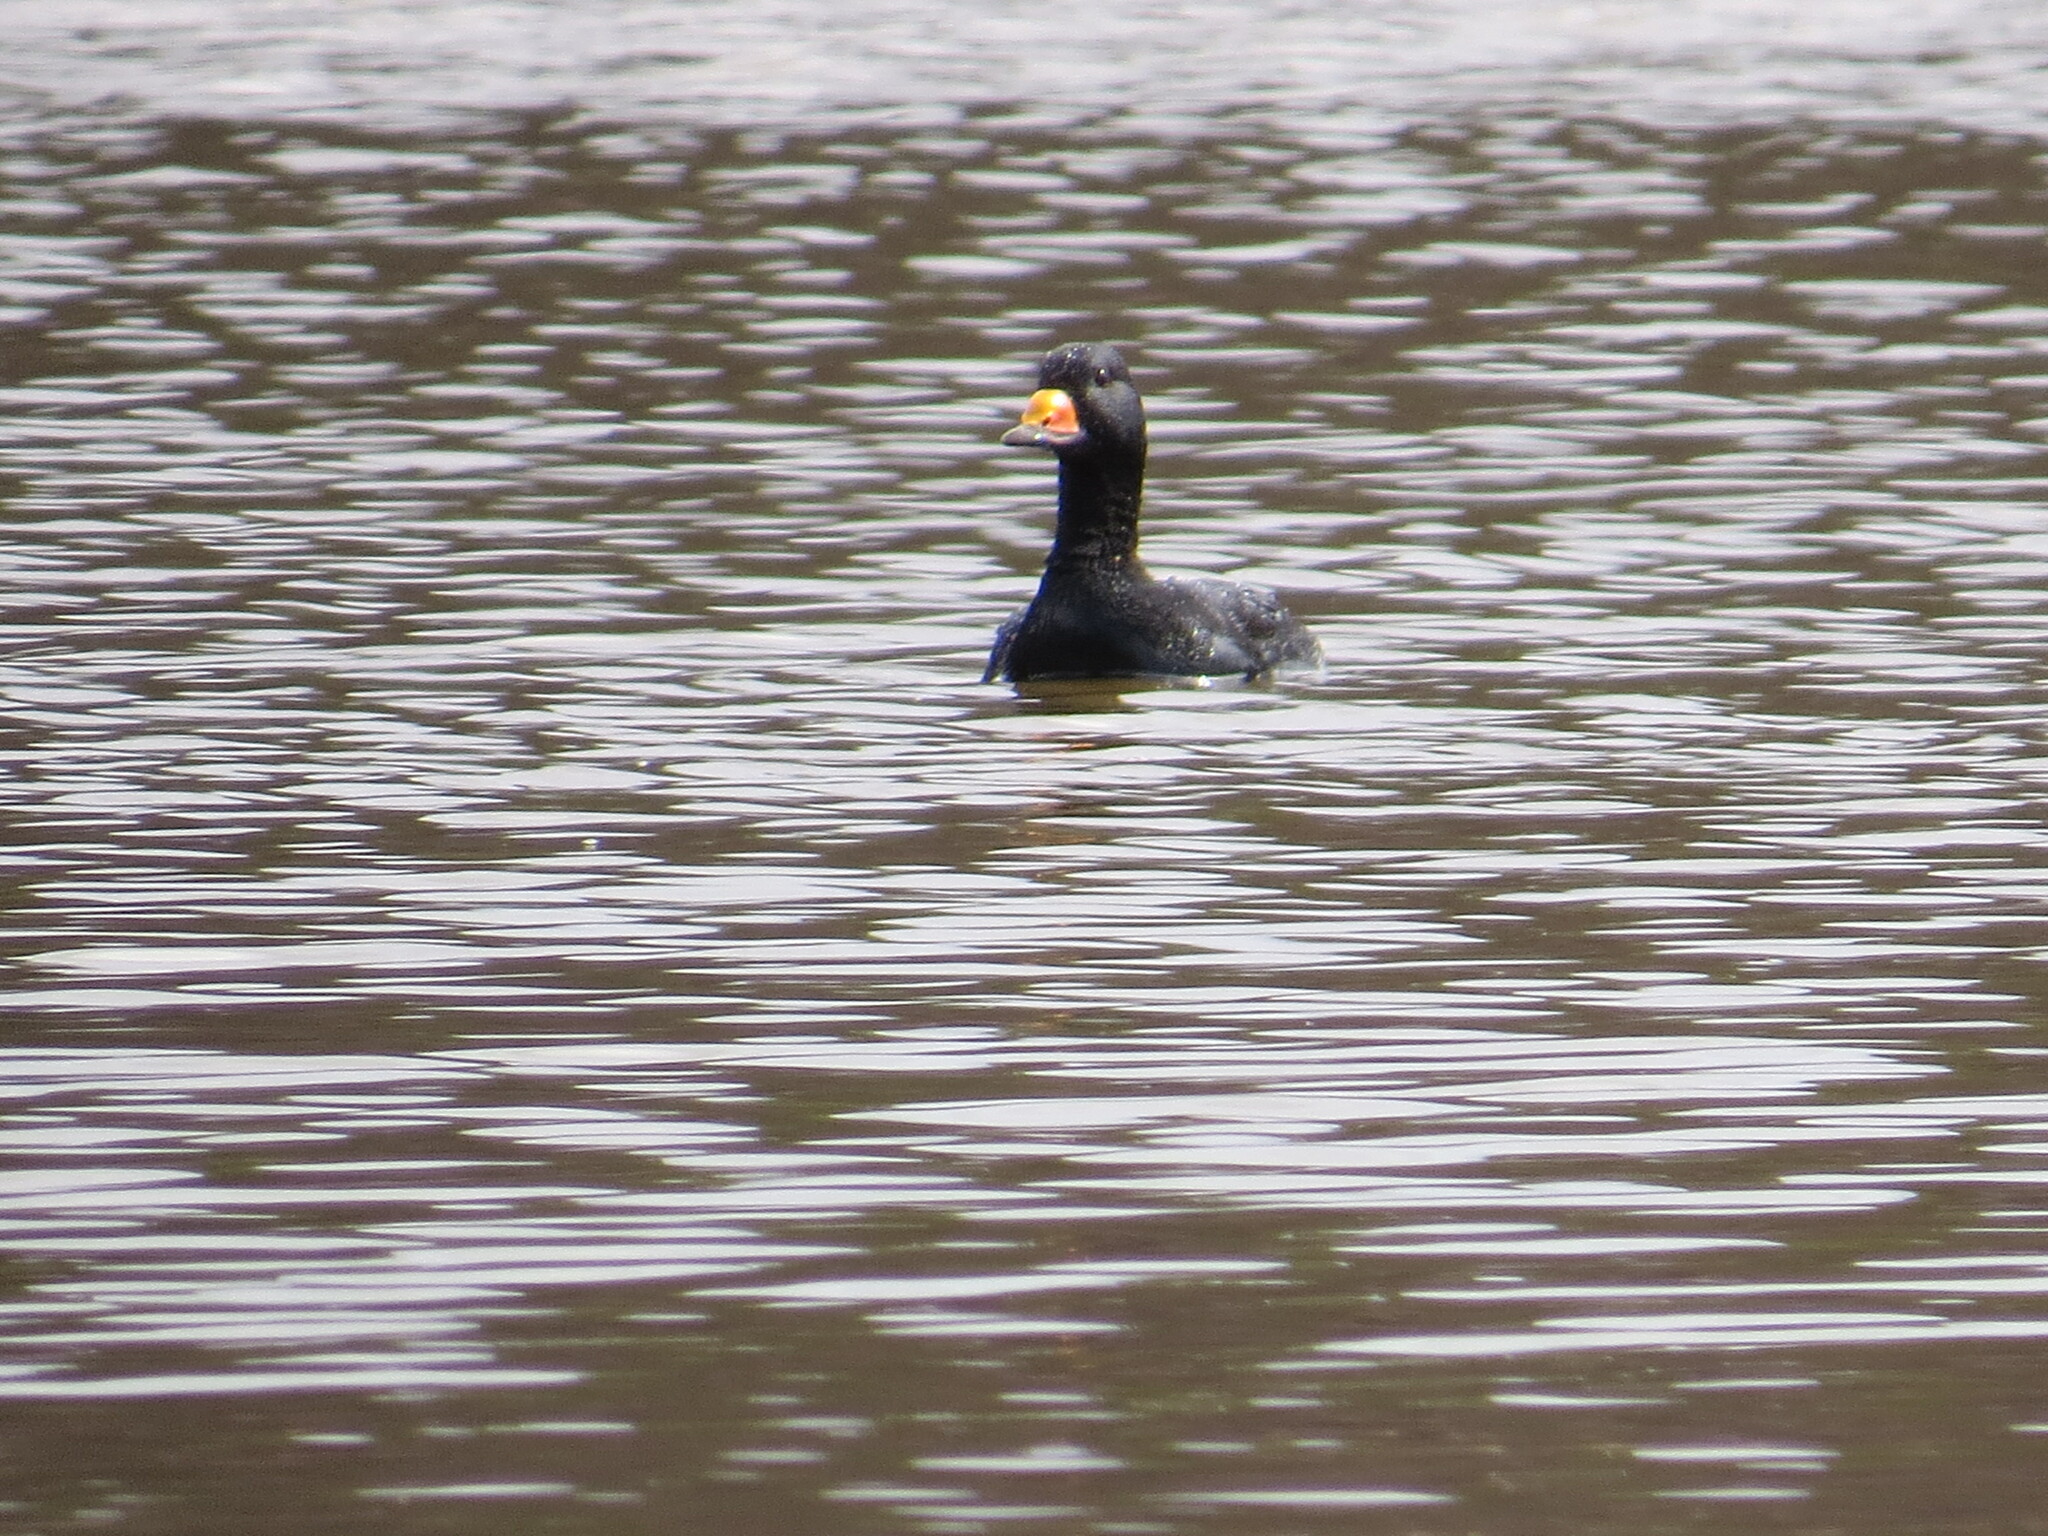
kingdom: Animalia
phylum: Chordata
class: Aves
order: Anseriformes
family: Anatidae
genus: Melanitta
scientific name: Melanitta americana
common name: Black scoter
